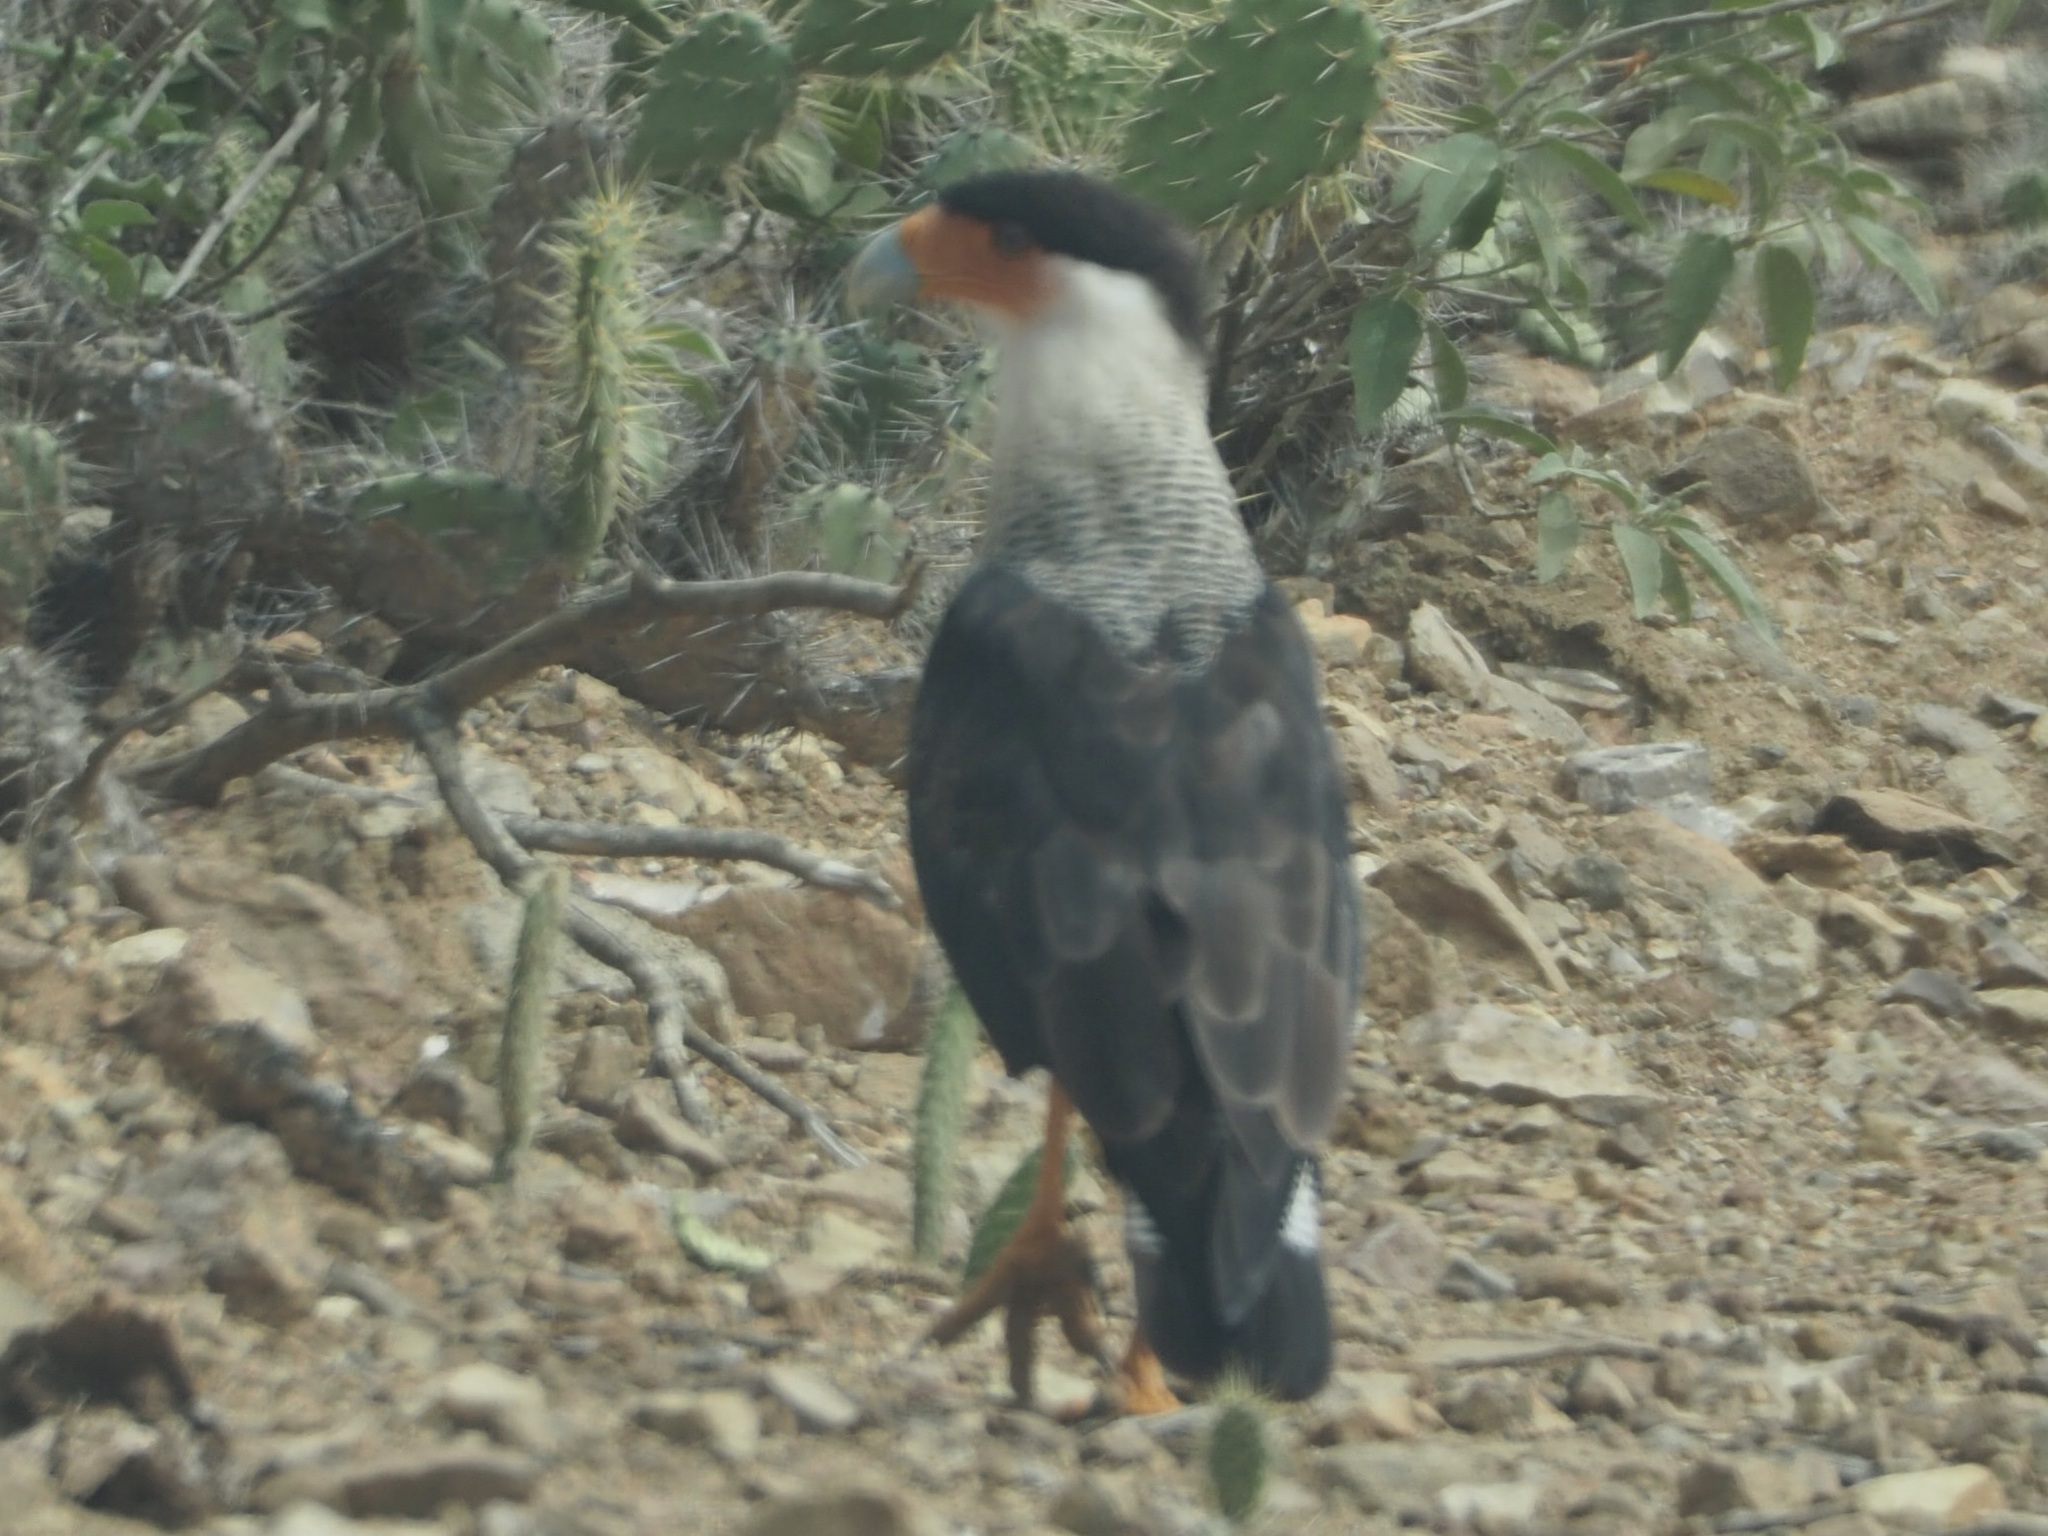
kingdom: Animalia
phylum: Chordata
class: Aves
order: Falconiformes
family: Falconidae
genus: Caracara
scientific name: Caracara plancus
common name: Southern caracara
